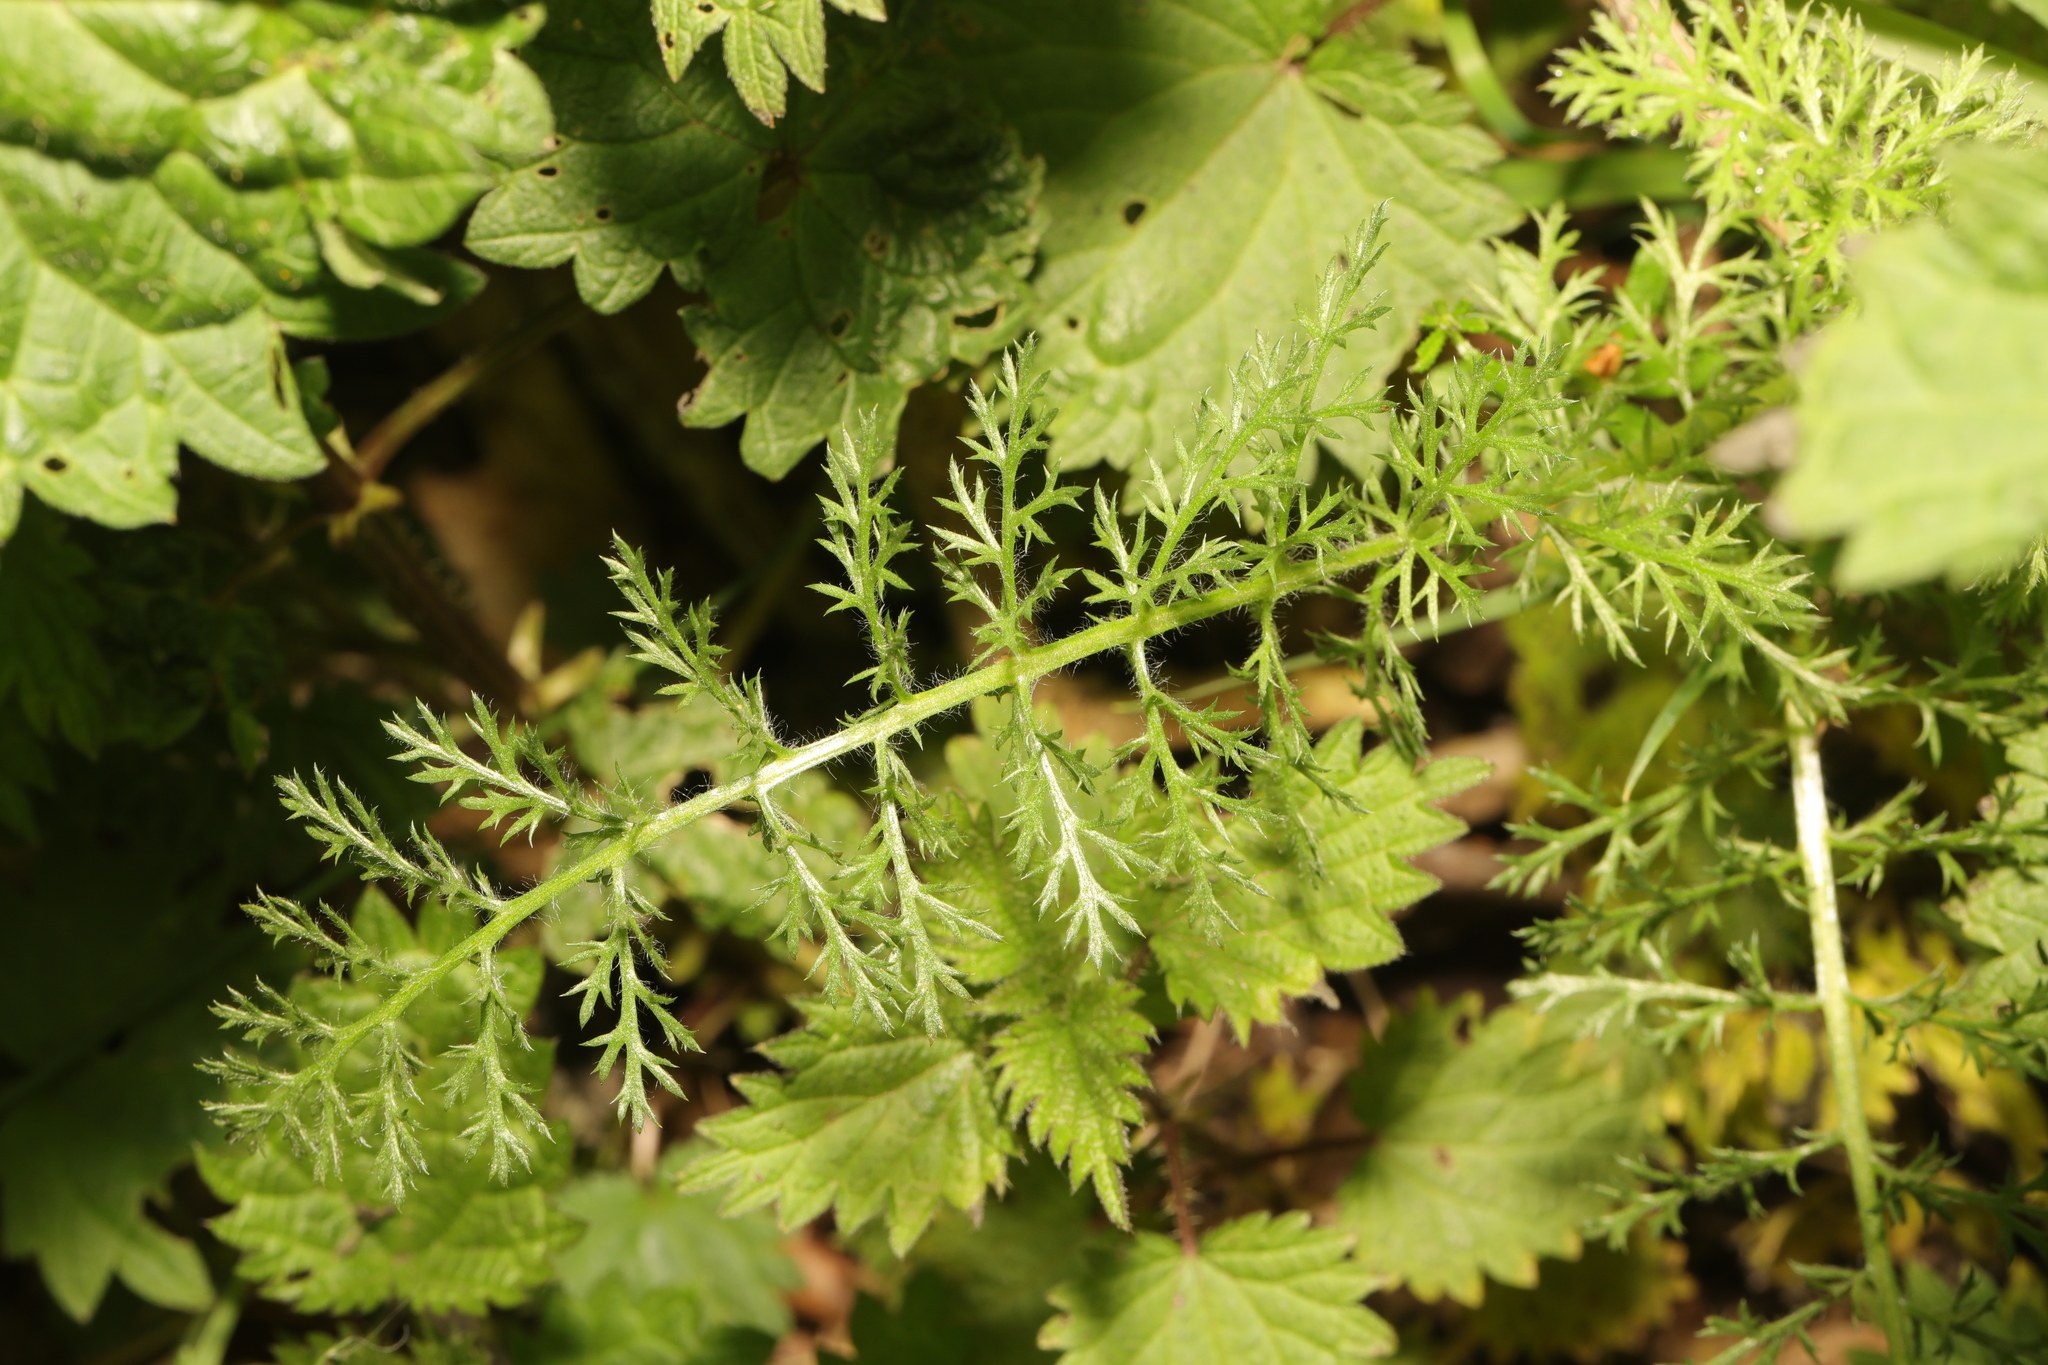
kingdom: Plantae
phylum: Tracheophyta
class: Magnoliopsida
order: Asterales
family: Asteraceae
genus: Achillea
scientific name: Achillea millefolium
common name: Yarrow
